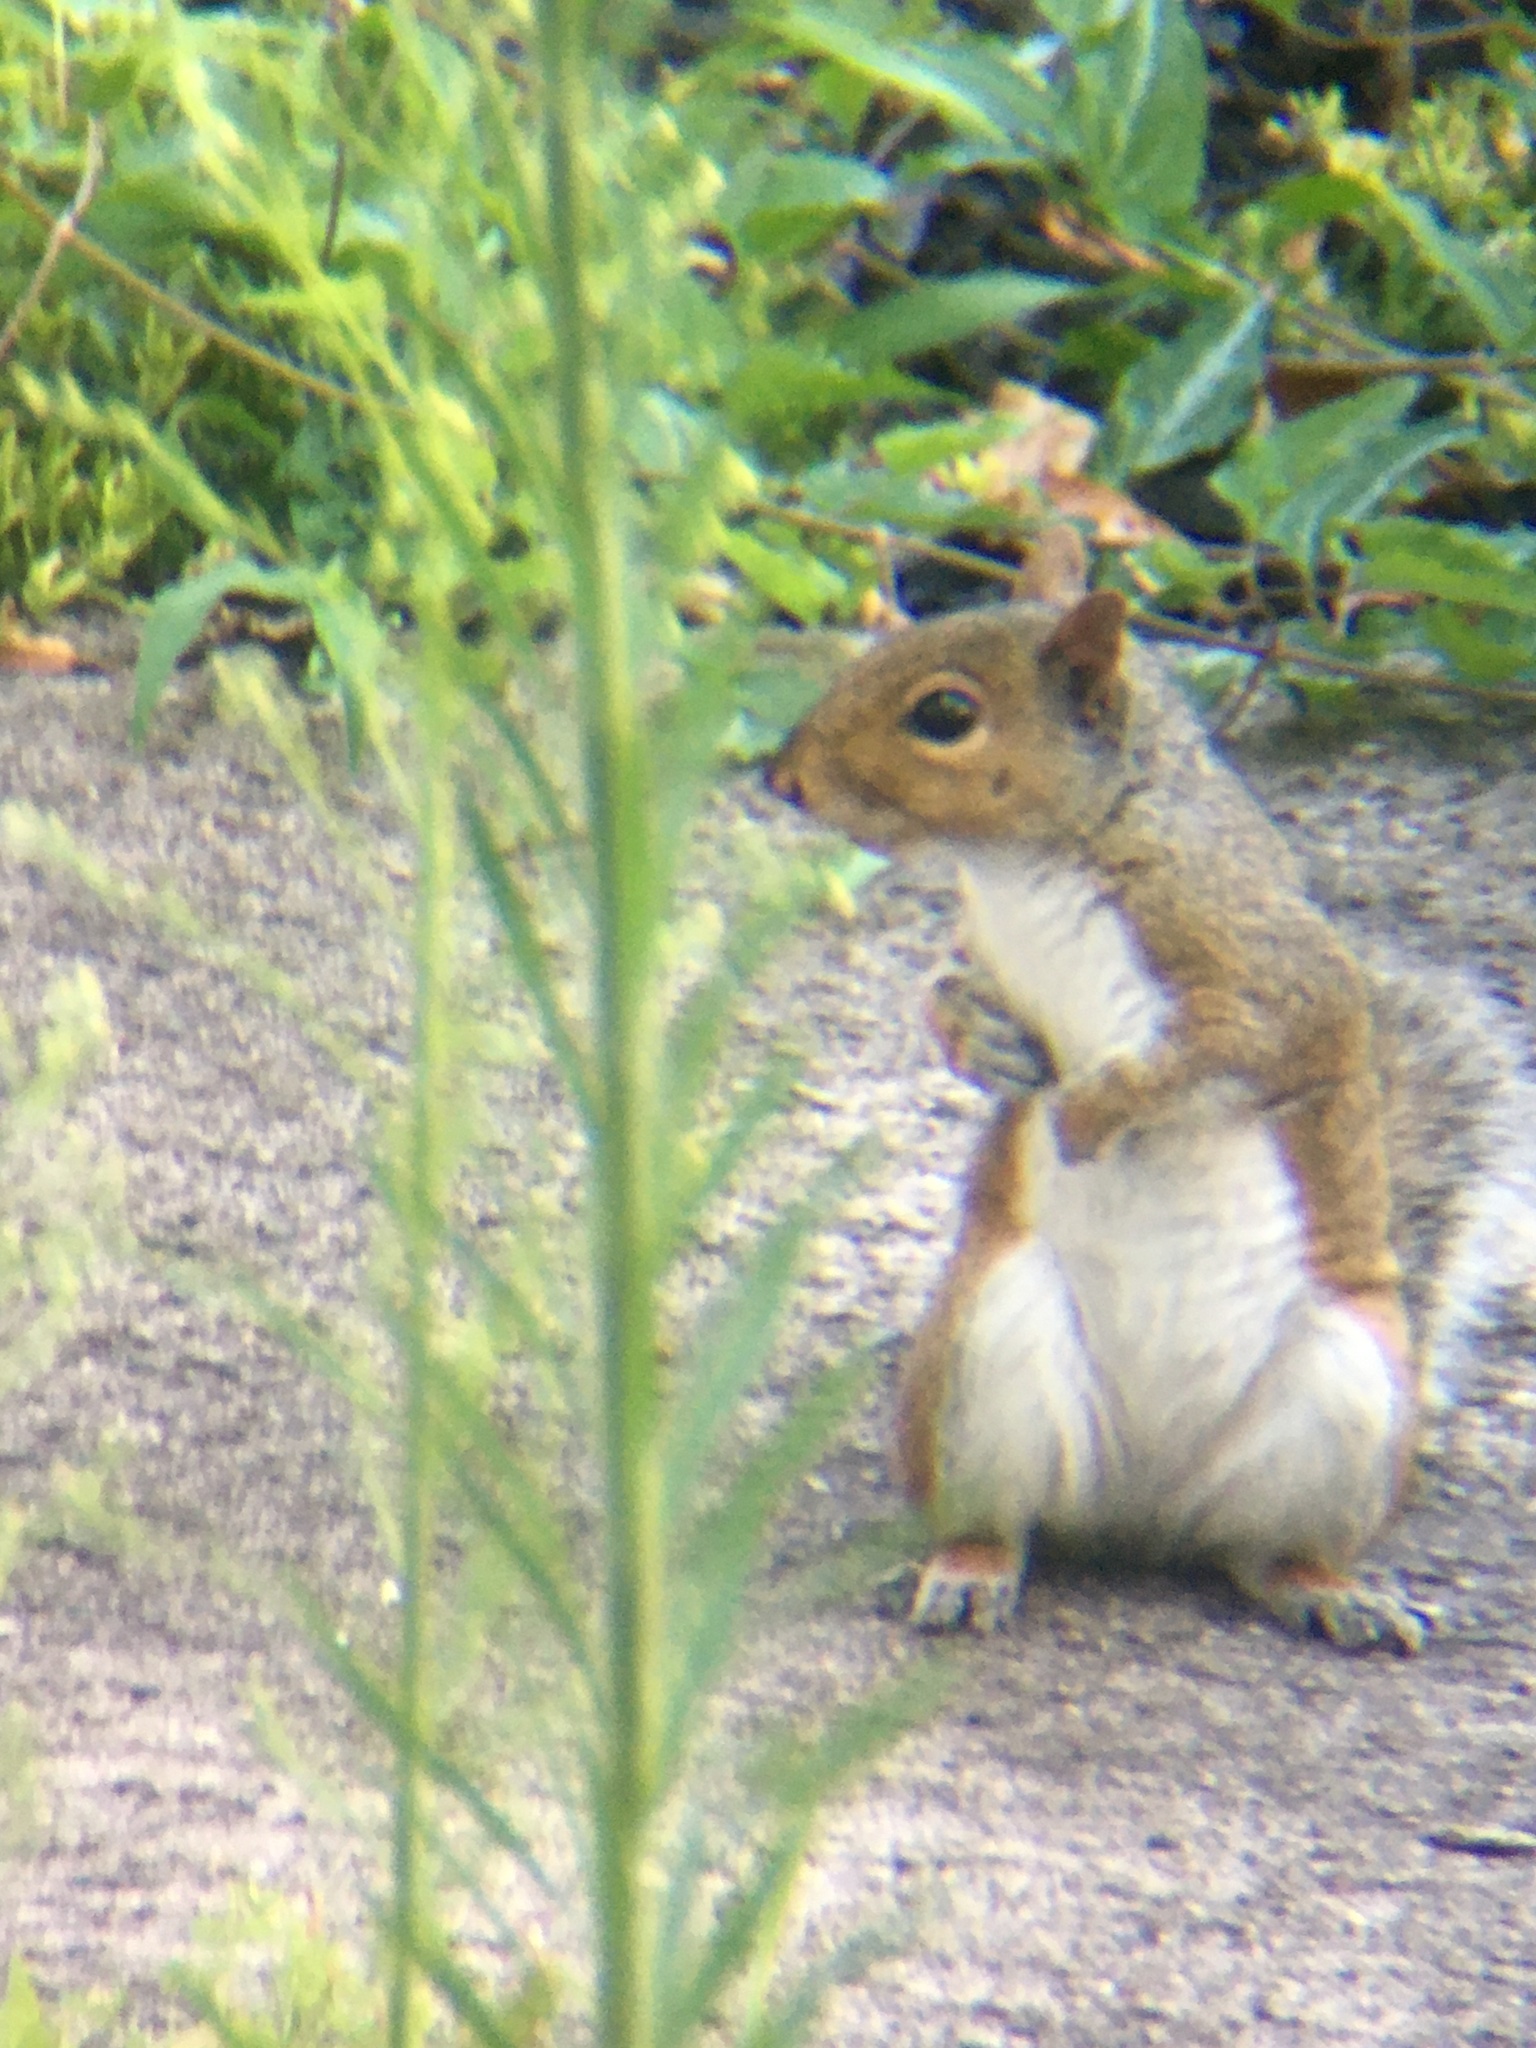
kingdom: Animalia
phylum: Chordata
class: Mammalia
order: Rodentia
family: Sciuridae
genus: Sciurus
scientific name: Sciurus carolinensis
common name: Eastern gray squirrel
